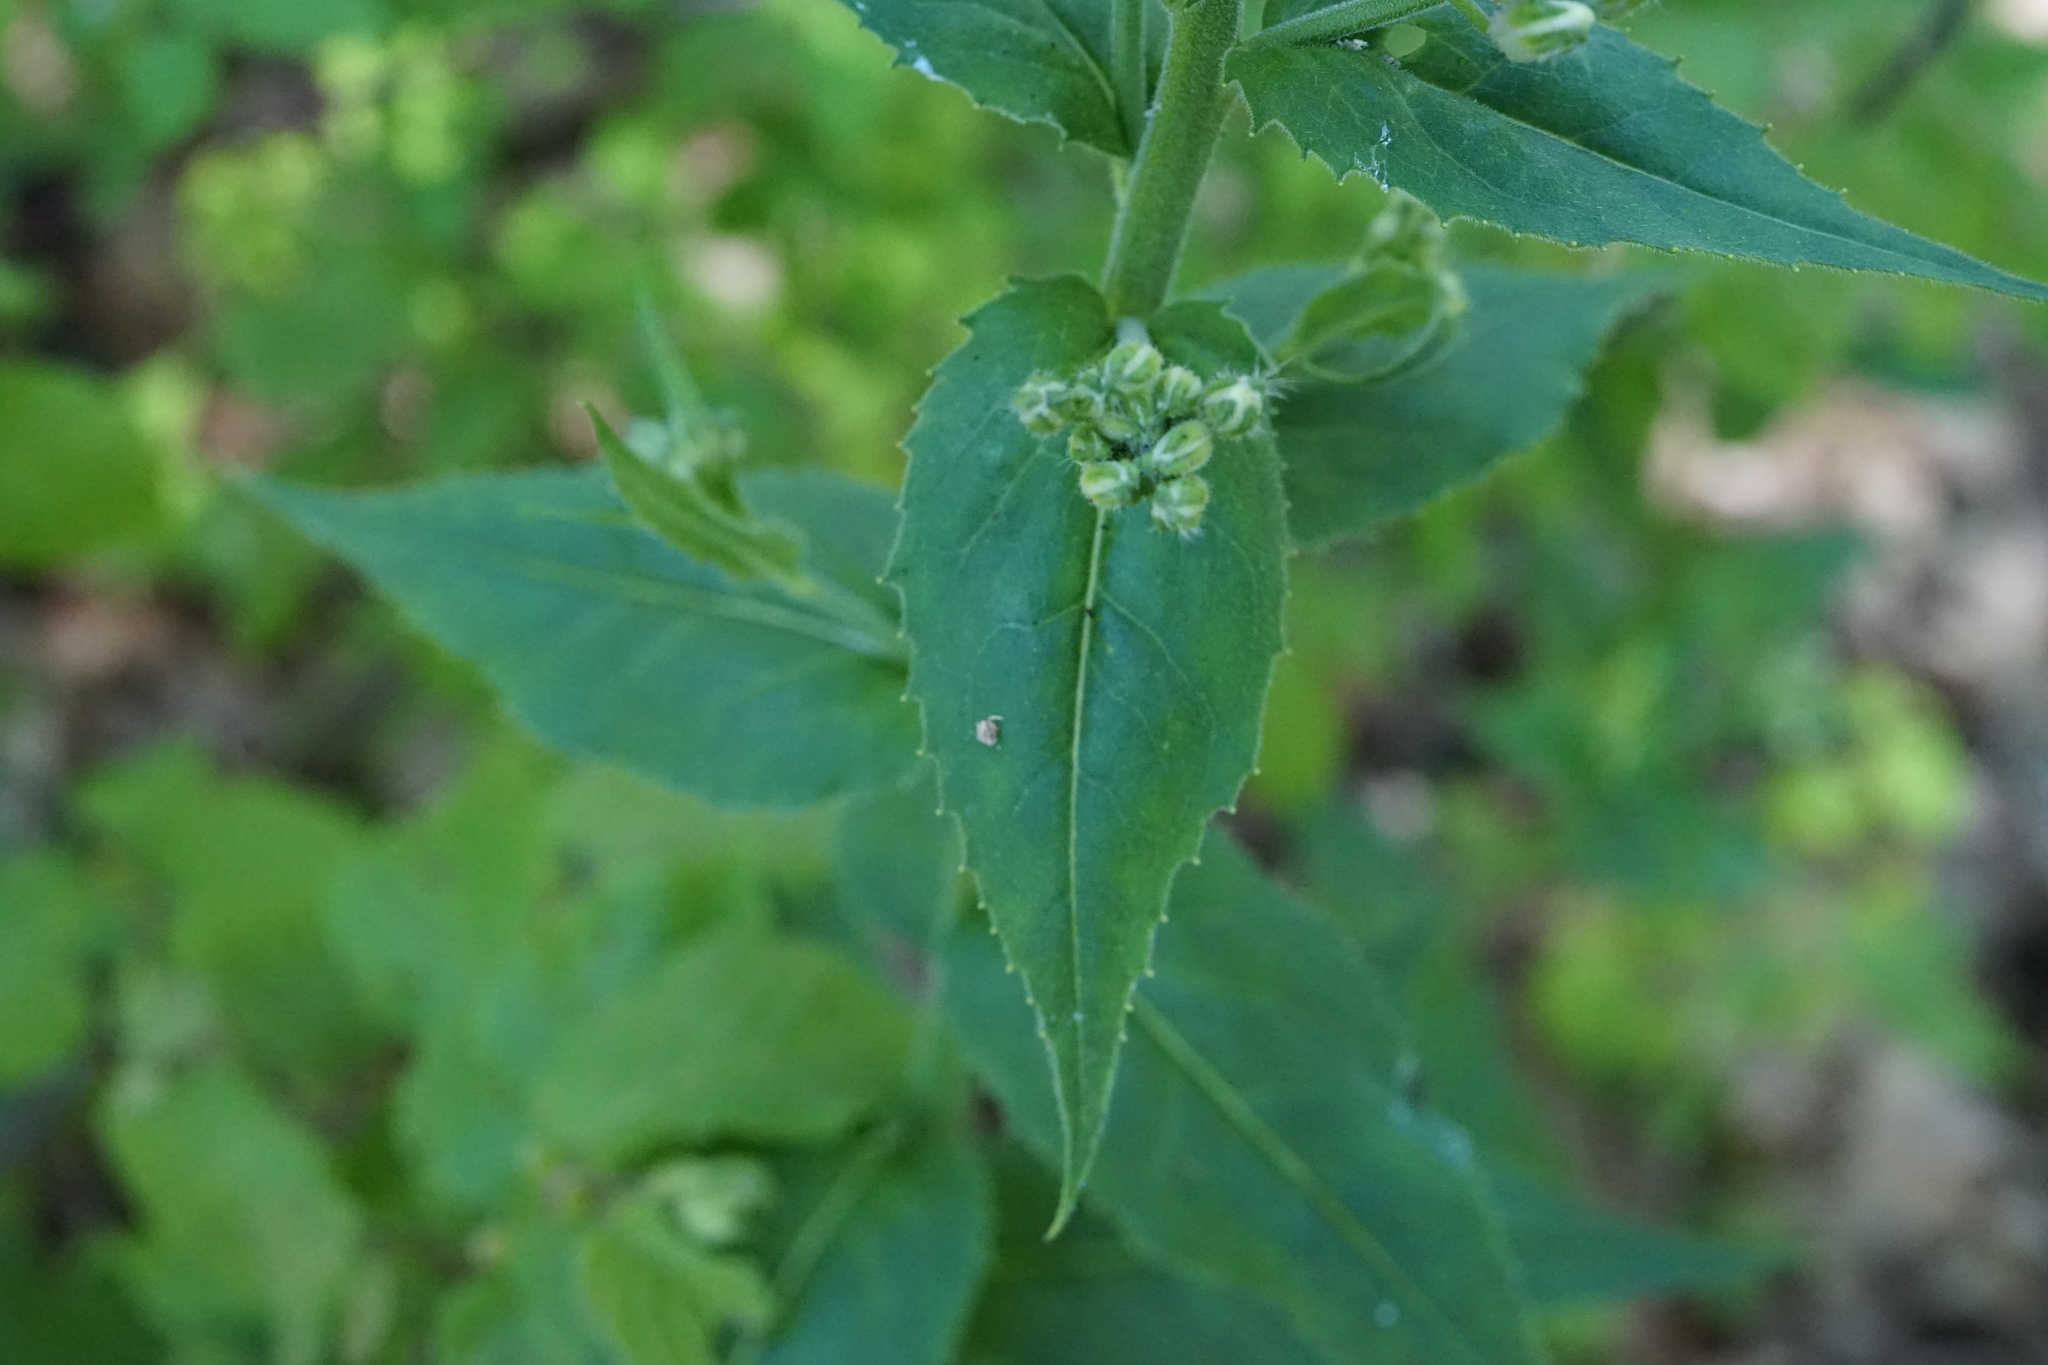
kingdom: Plantae
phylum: Tracheophyta
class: Magnoliopsida
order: Brassicales
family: Brassicaceae
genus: Hesperis
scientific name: Hesperis matronalis
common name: Dame's-violet
